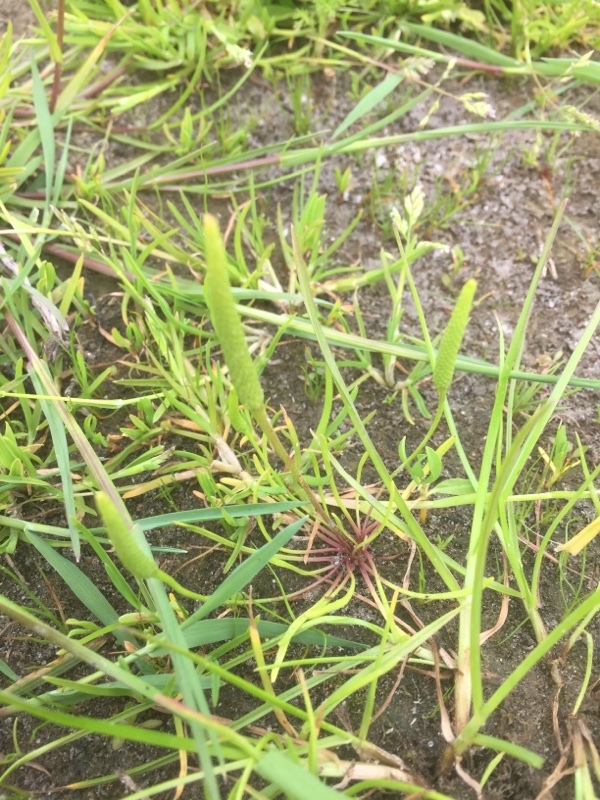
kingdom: Plantae
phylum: Tracheophyta
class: Magnoliopsida
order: Ranunculales
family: Ranunculaceae
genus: Myosurus
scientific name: Myosurus minimus
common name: Mousetail
